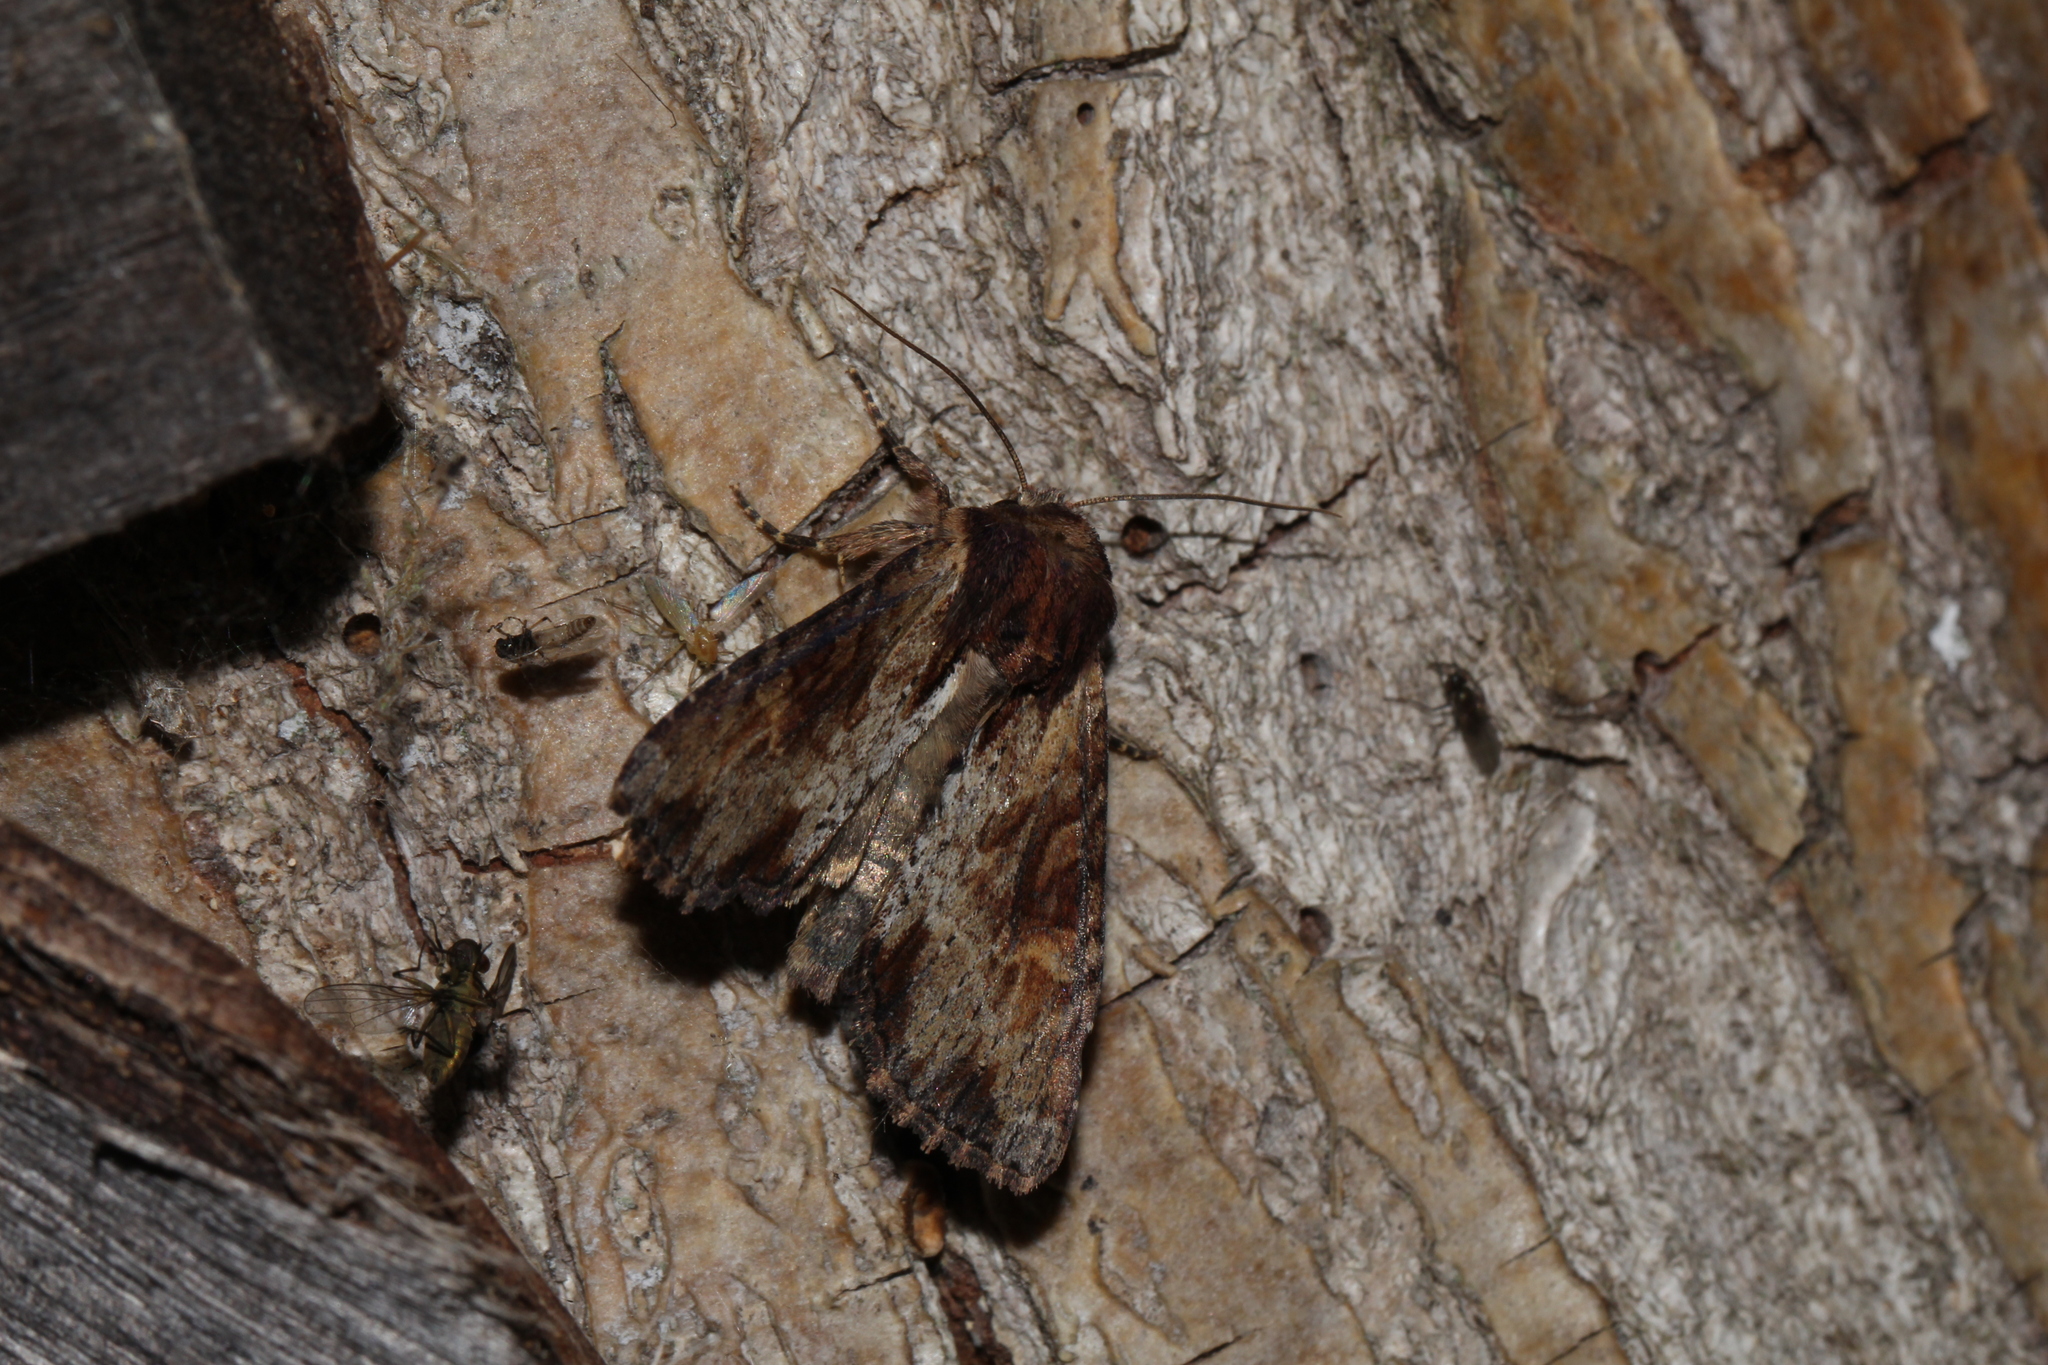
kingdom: Animalia
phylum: Arthropoda
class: Insecta
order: Lepidoptera
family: Noctuidae
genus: Apamea
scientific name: Apamea crenata
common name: Clouded-bordered brindle
